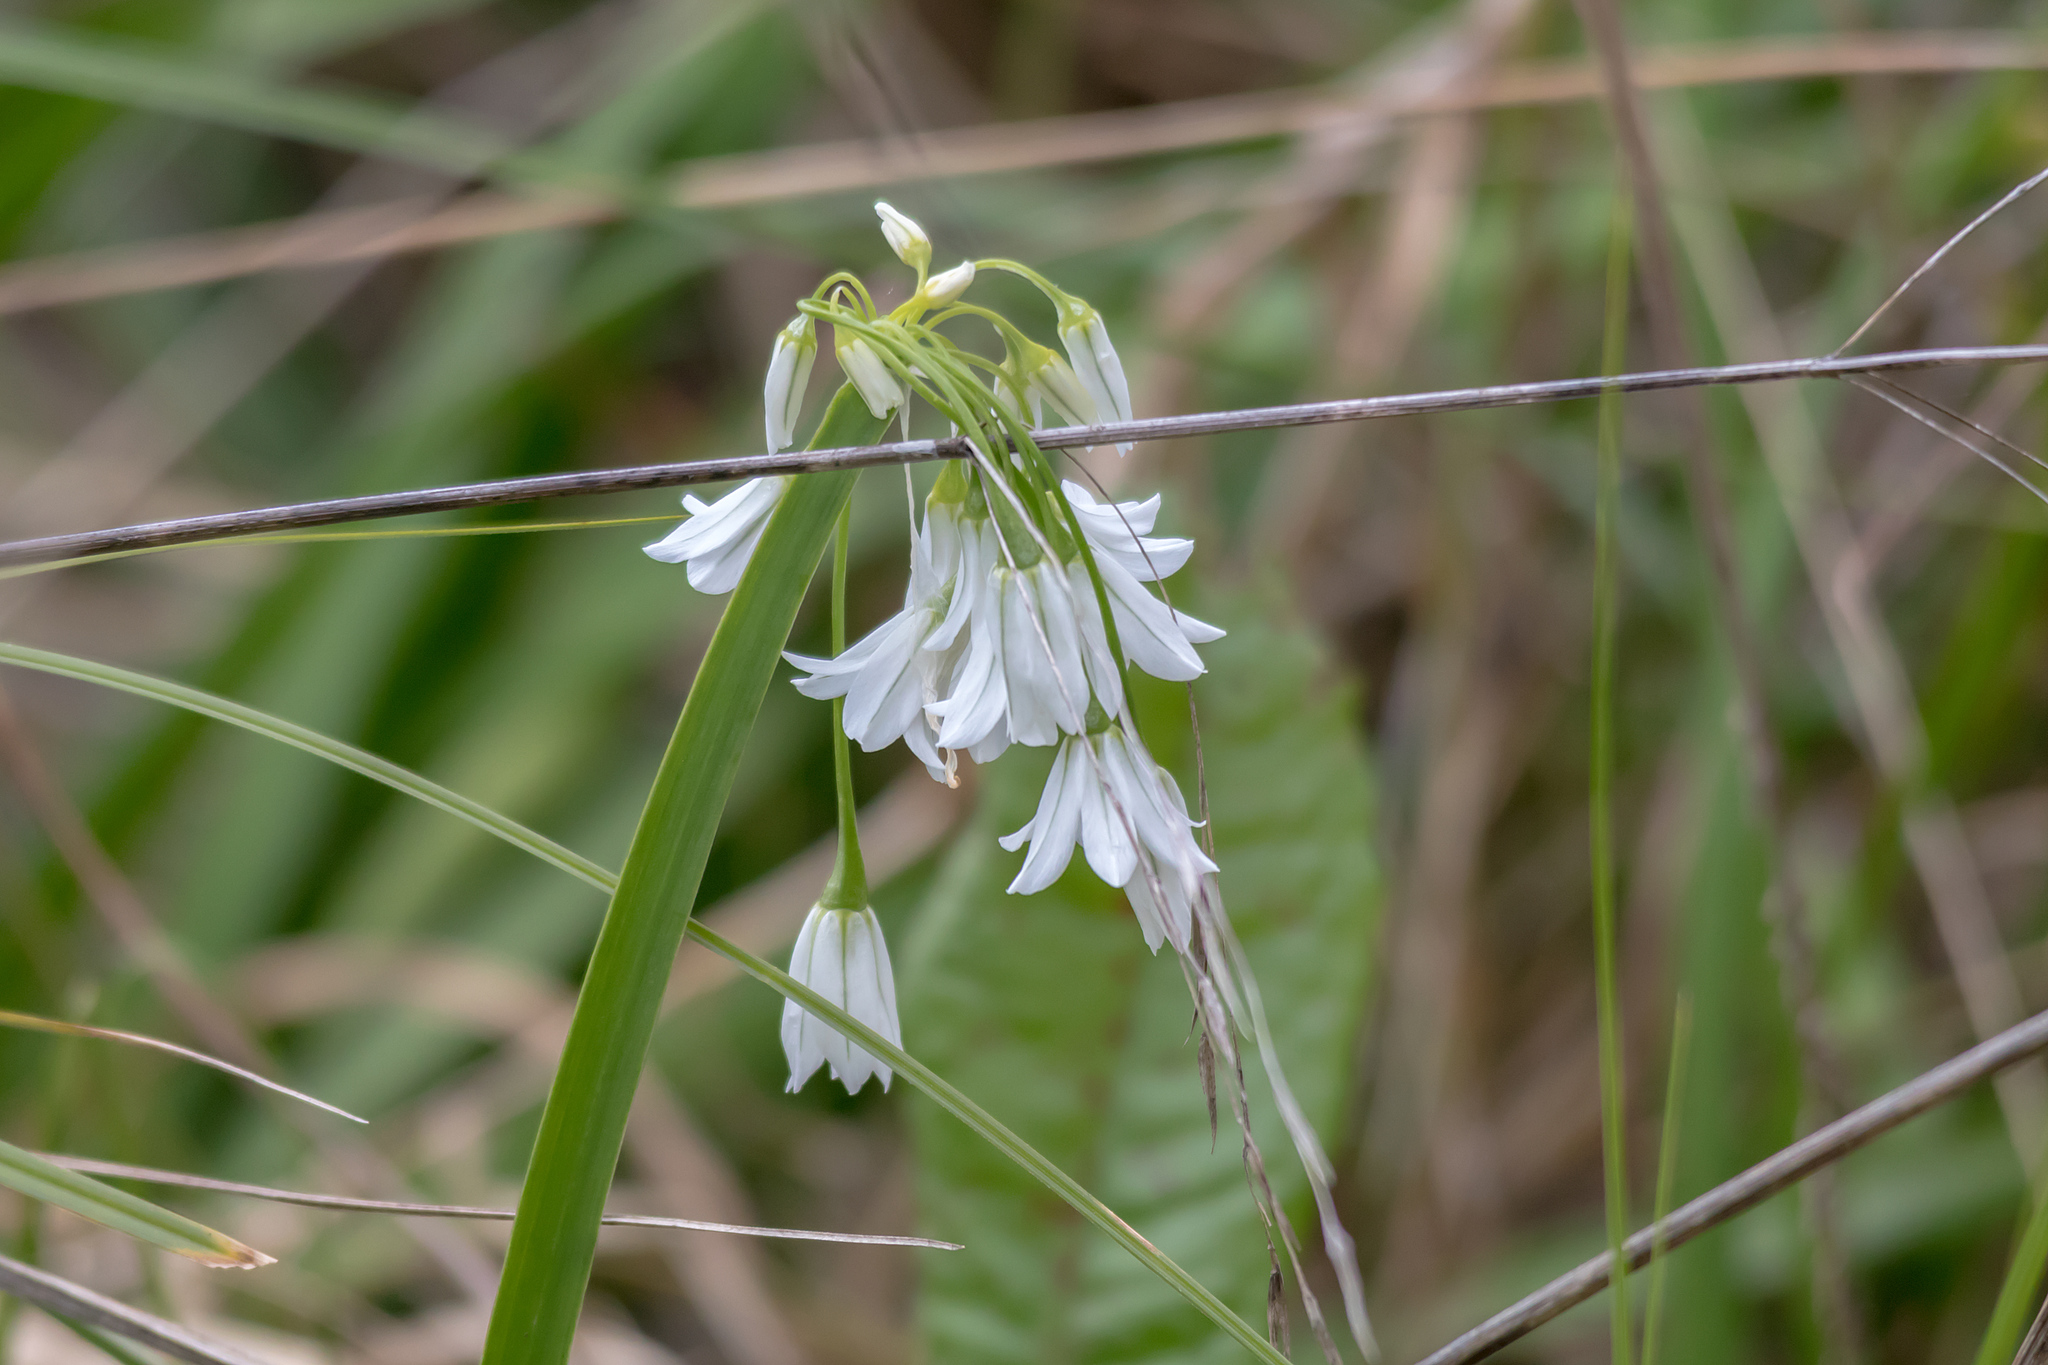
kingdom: Plantae
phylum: Tracheophyta
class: Liliopsida
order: Asparagales
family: Amaryllidaceae
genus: Allium
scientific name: Allium triquetrum
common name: Three-cornered garlic
